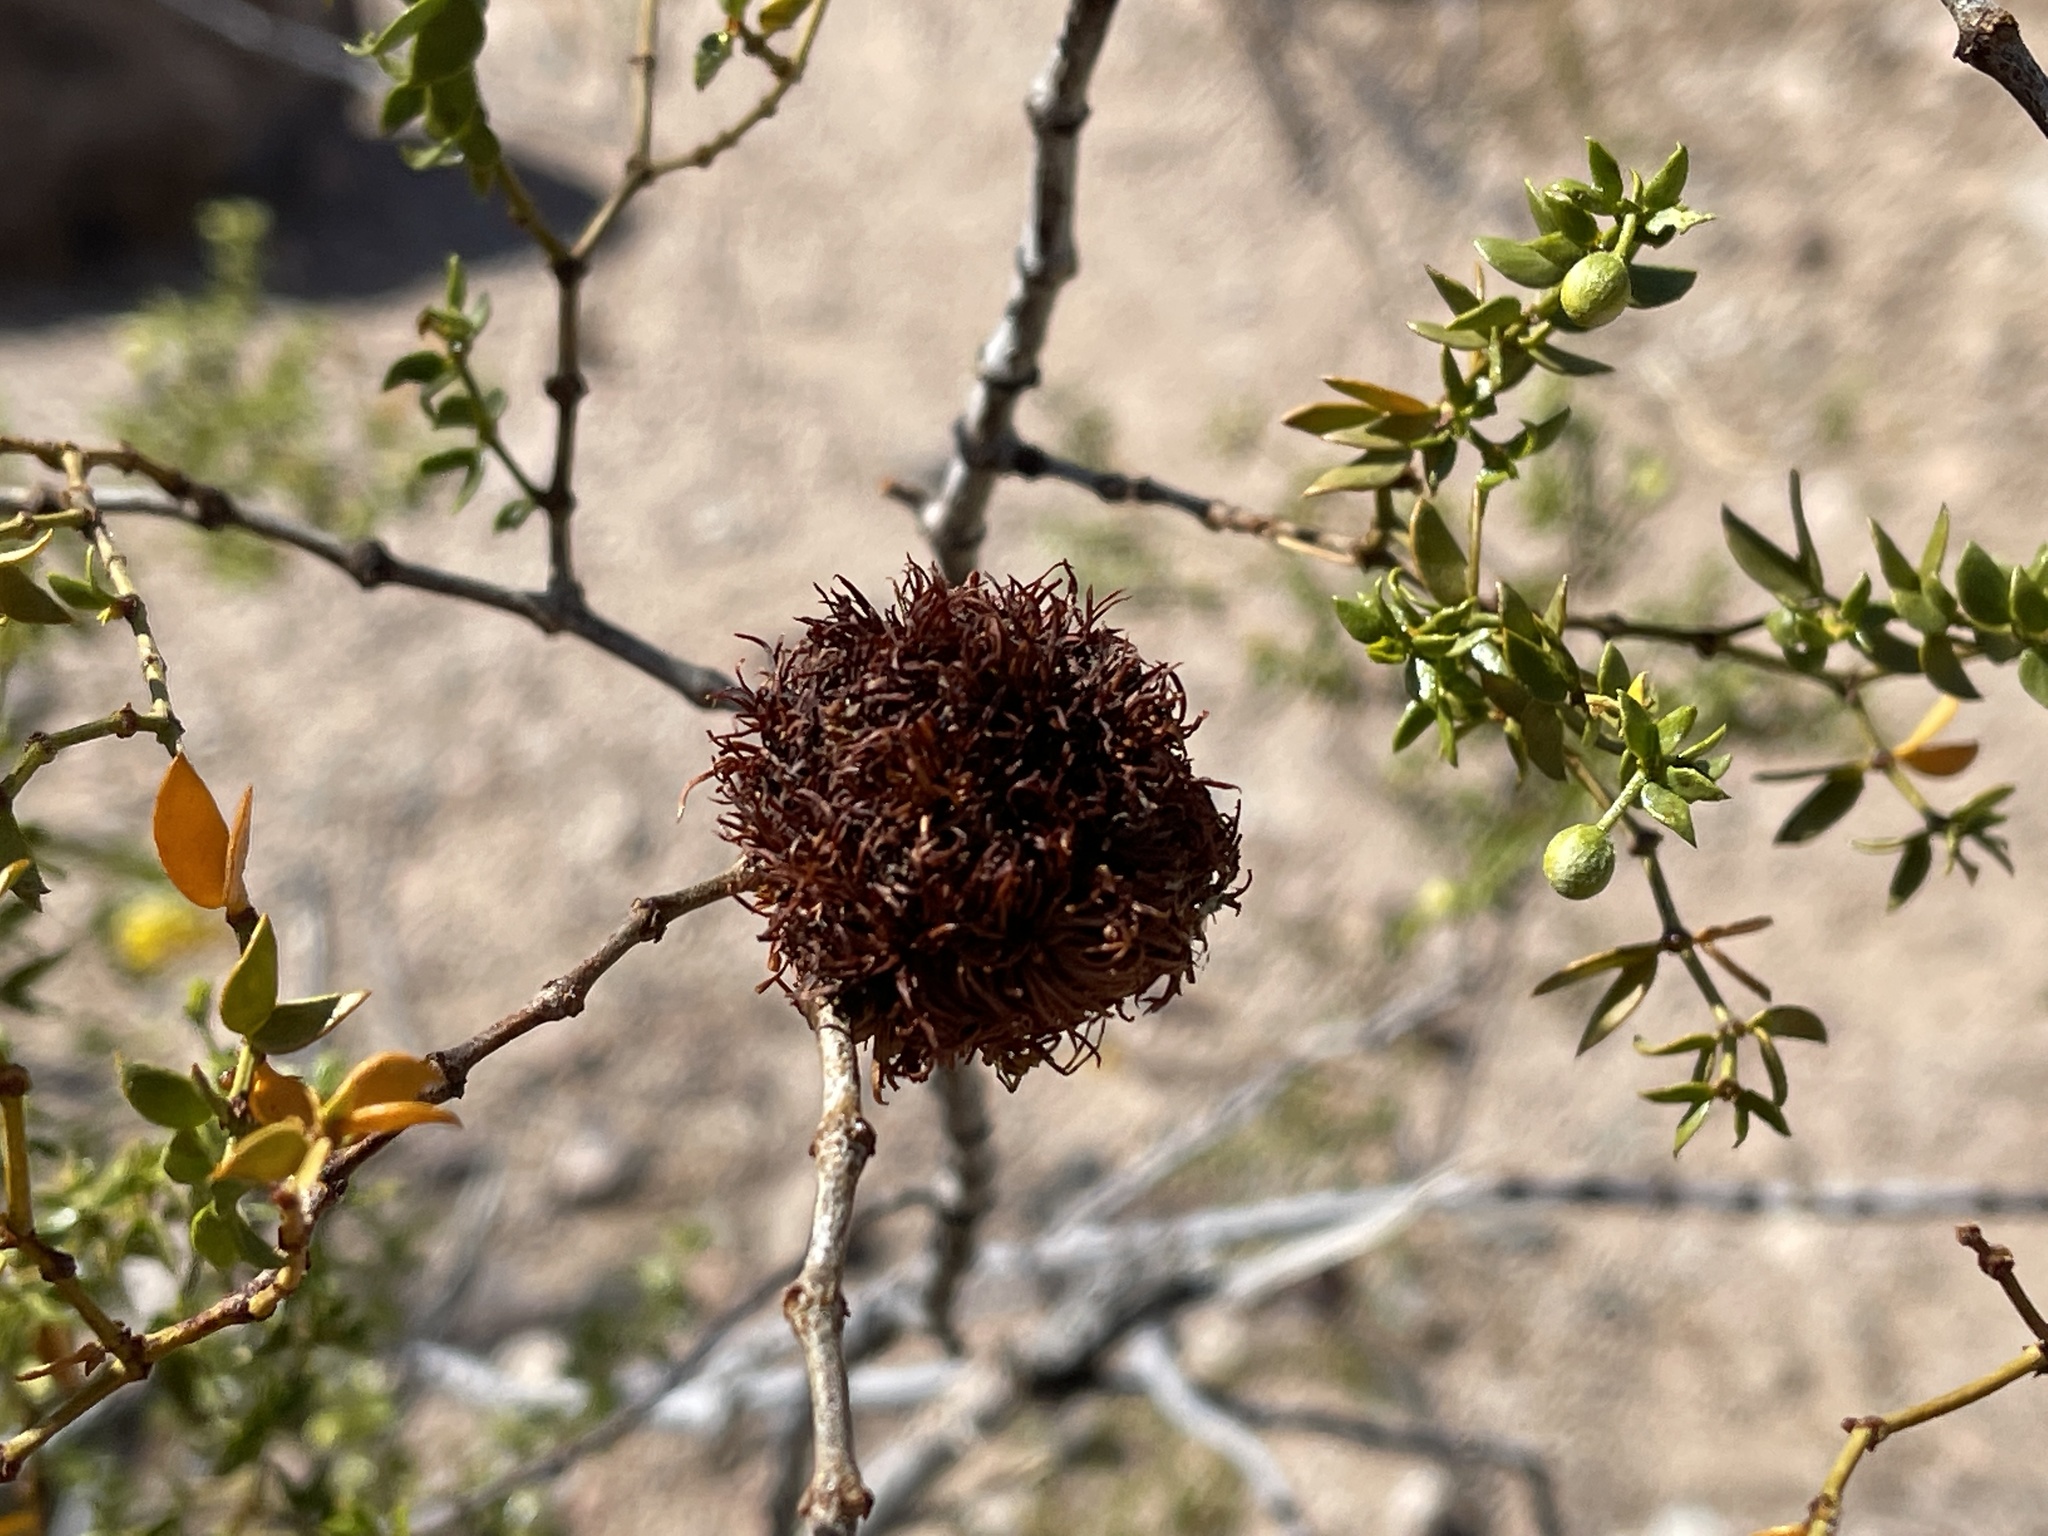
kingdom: Animalia
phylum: Arthropoda
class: Insecta
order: Diptera
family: Cecidomyiidae
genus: Asphondylia
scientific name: Asphondylia auripila
